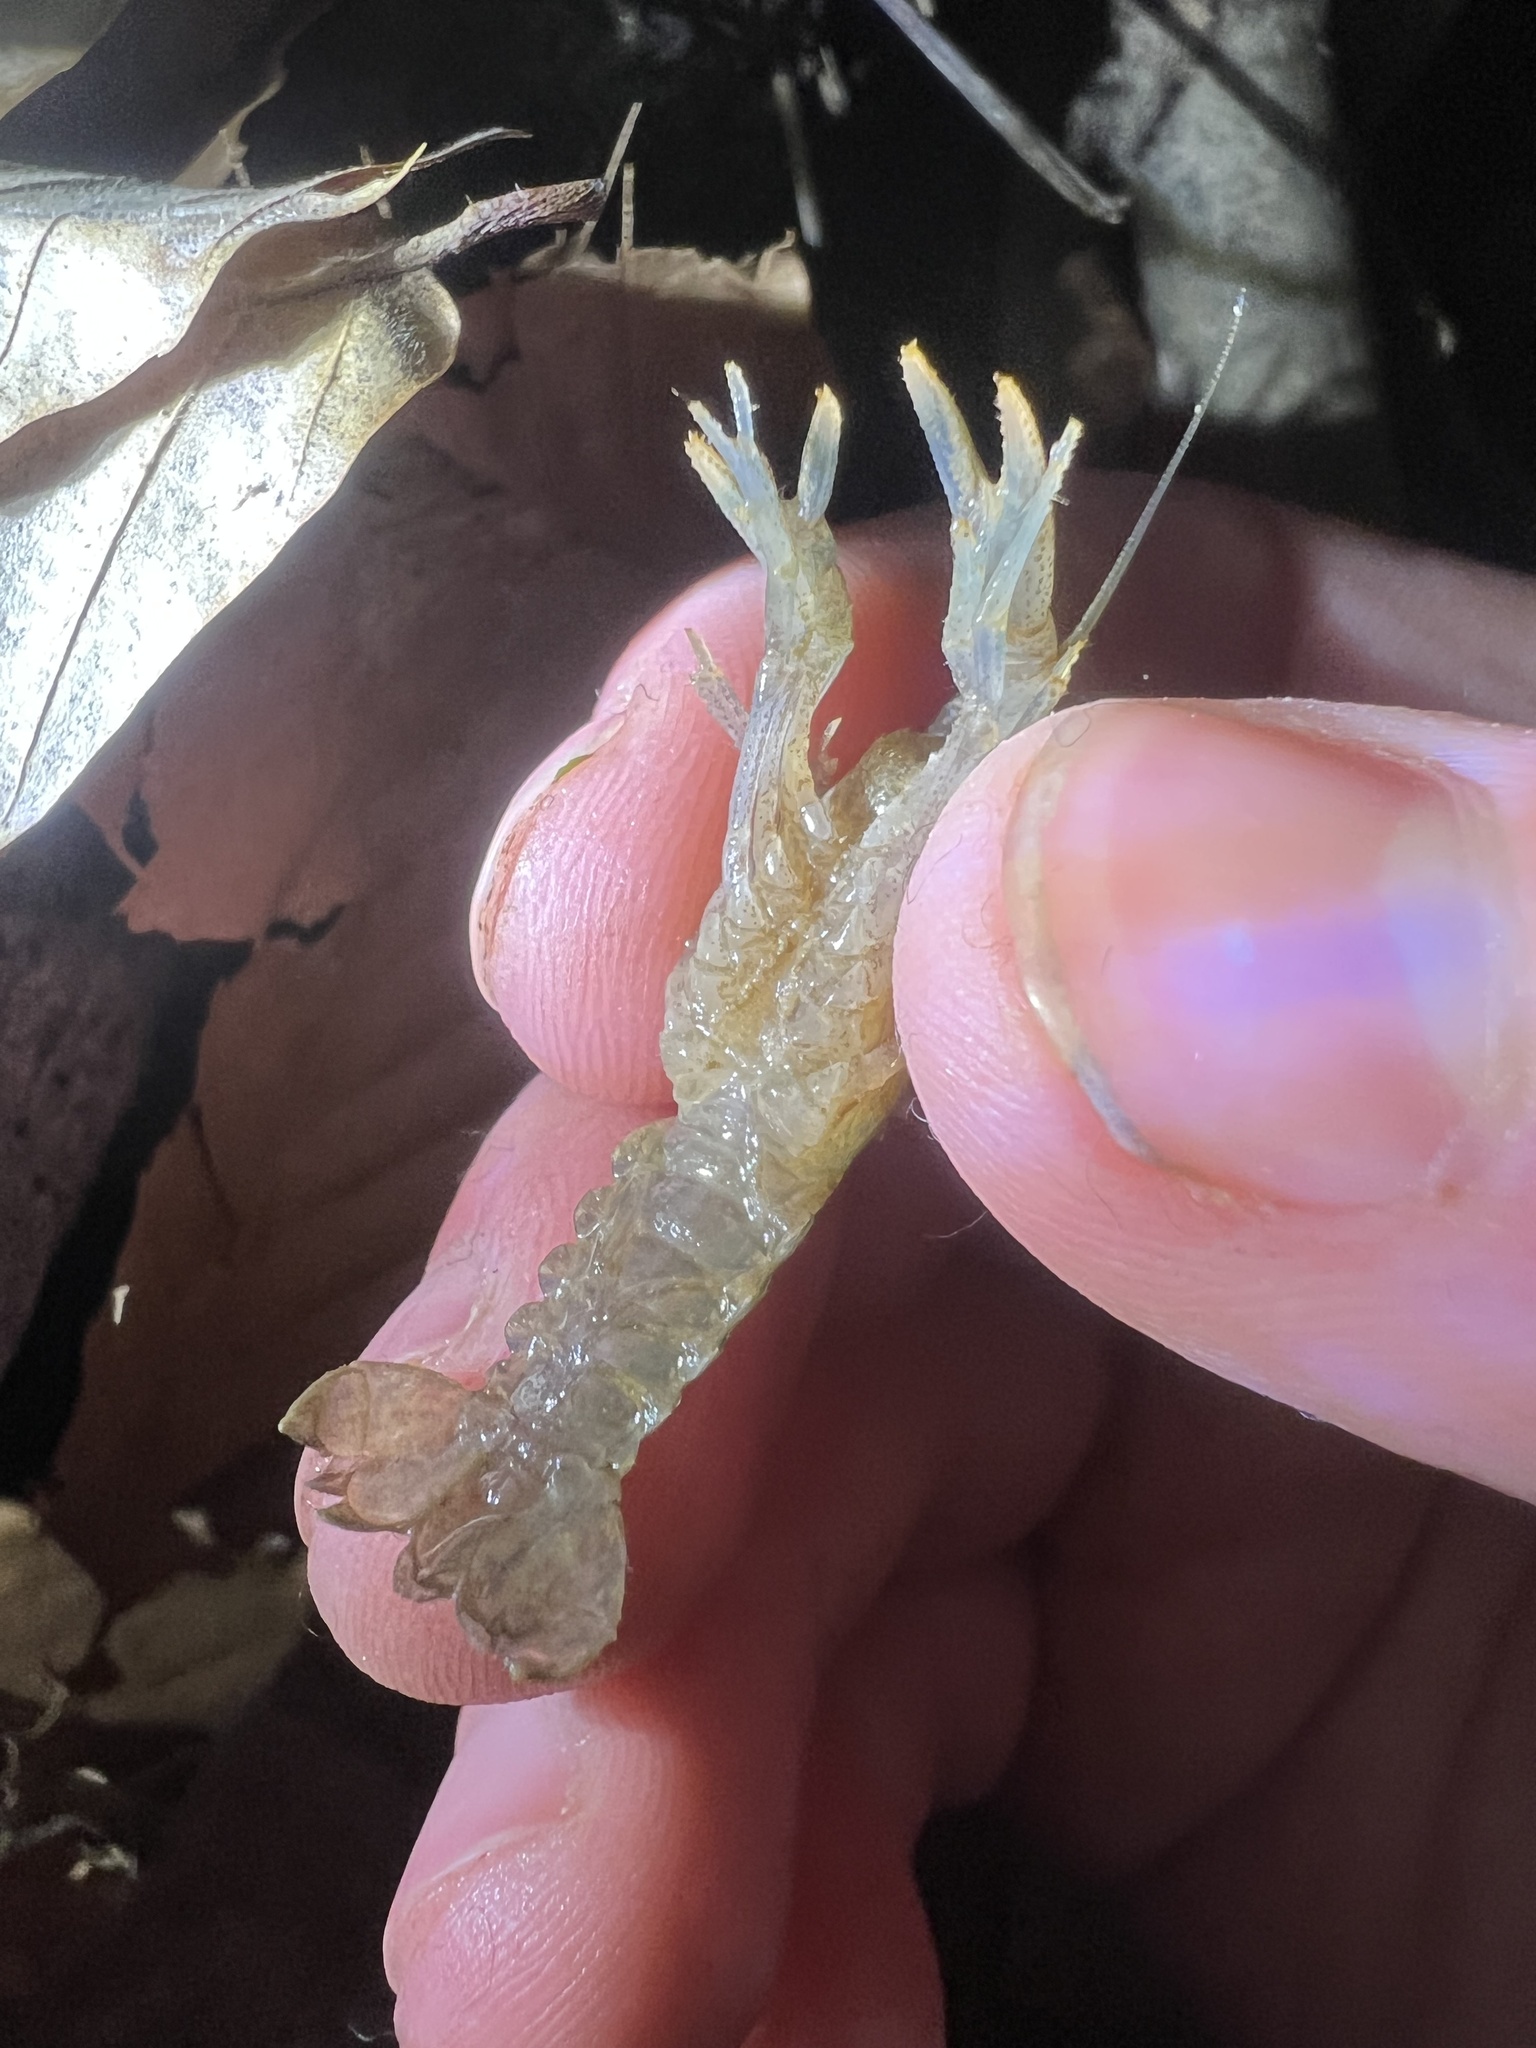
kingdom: Animalia
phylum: Arthropoda
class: Malacostraca
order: Decapoda
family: Cambaridae
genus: Cambarus
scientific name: Cambarus latimanus
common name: Variable crayfish
